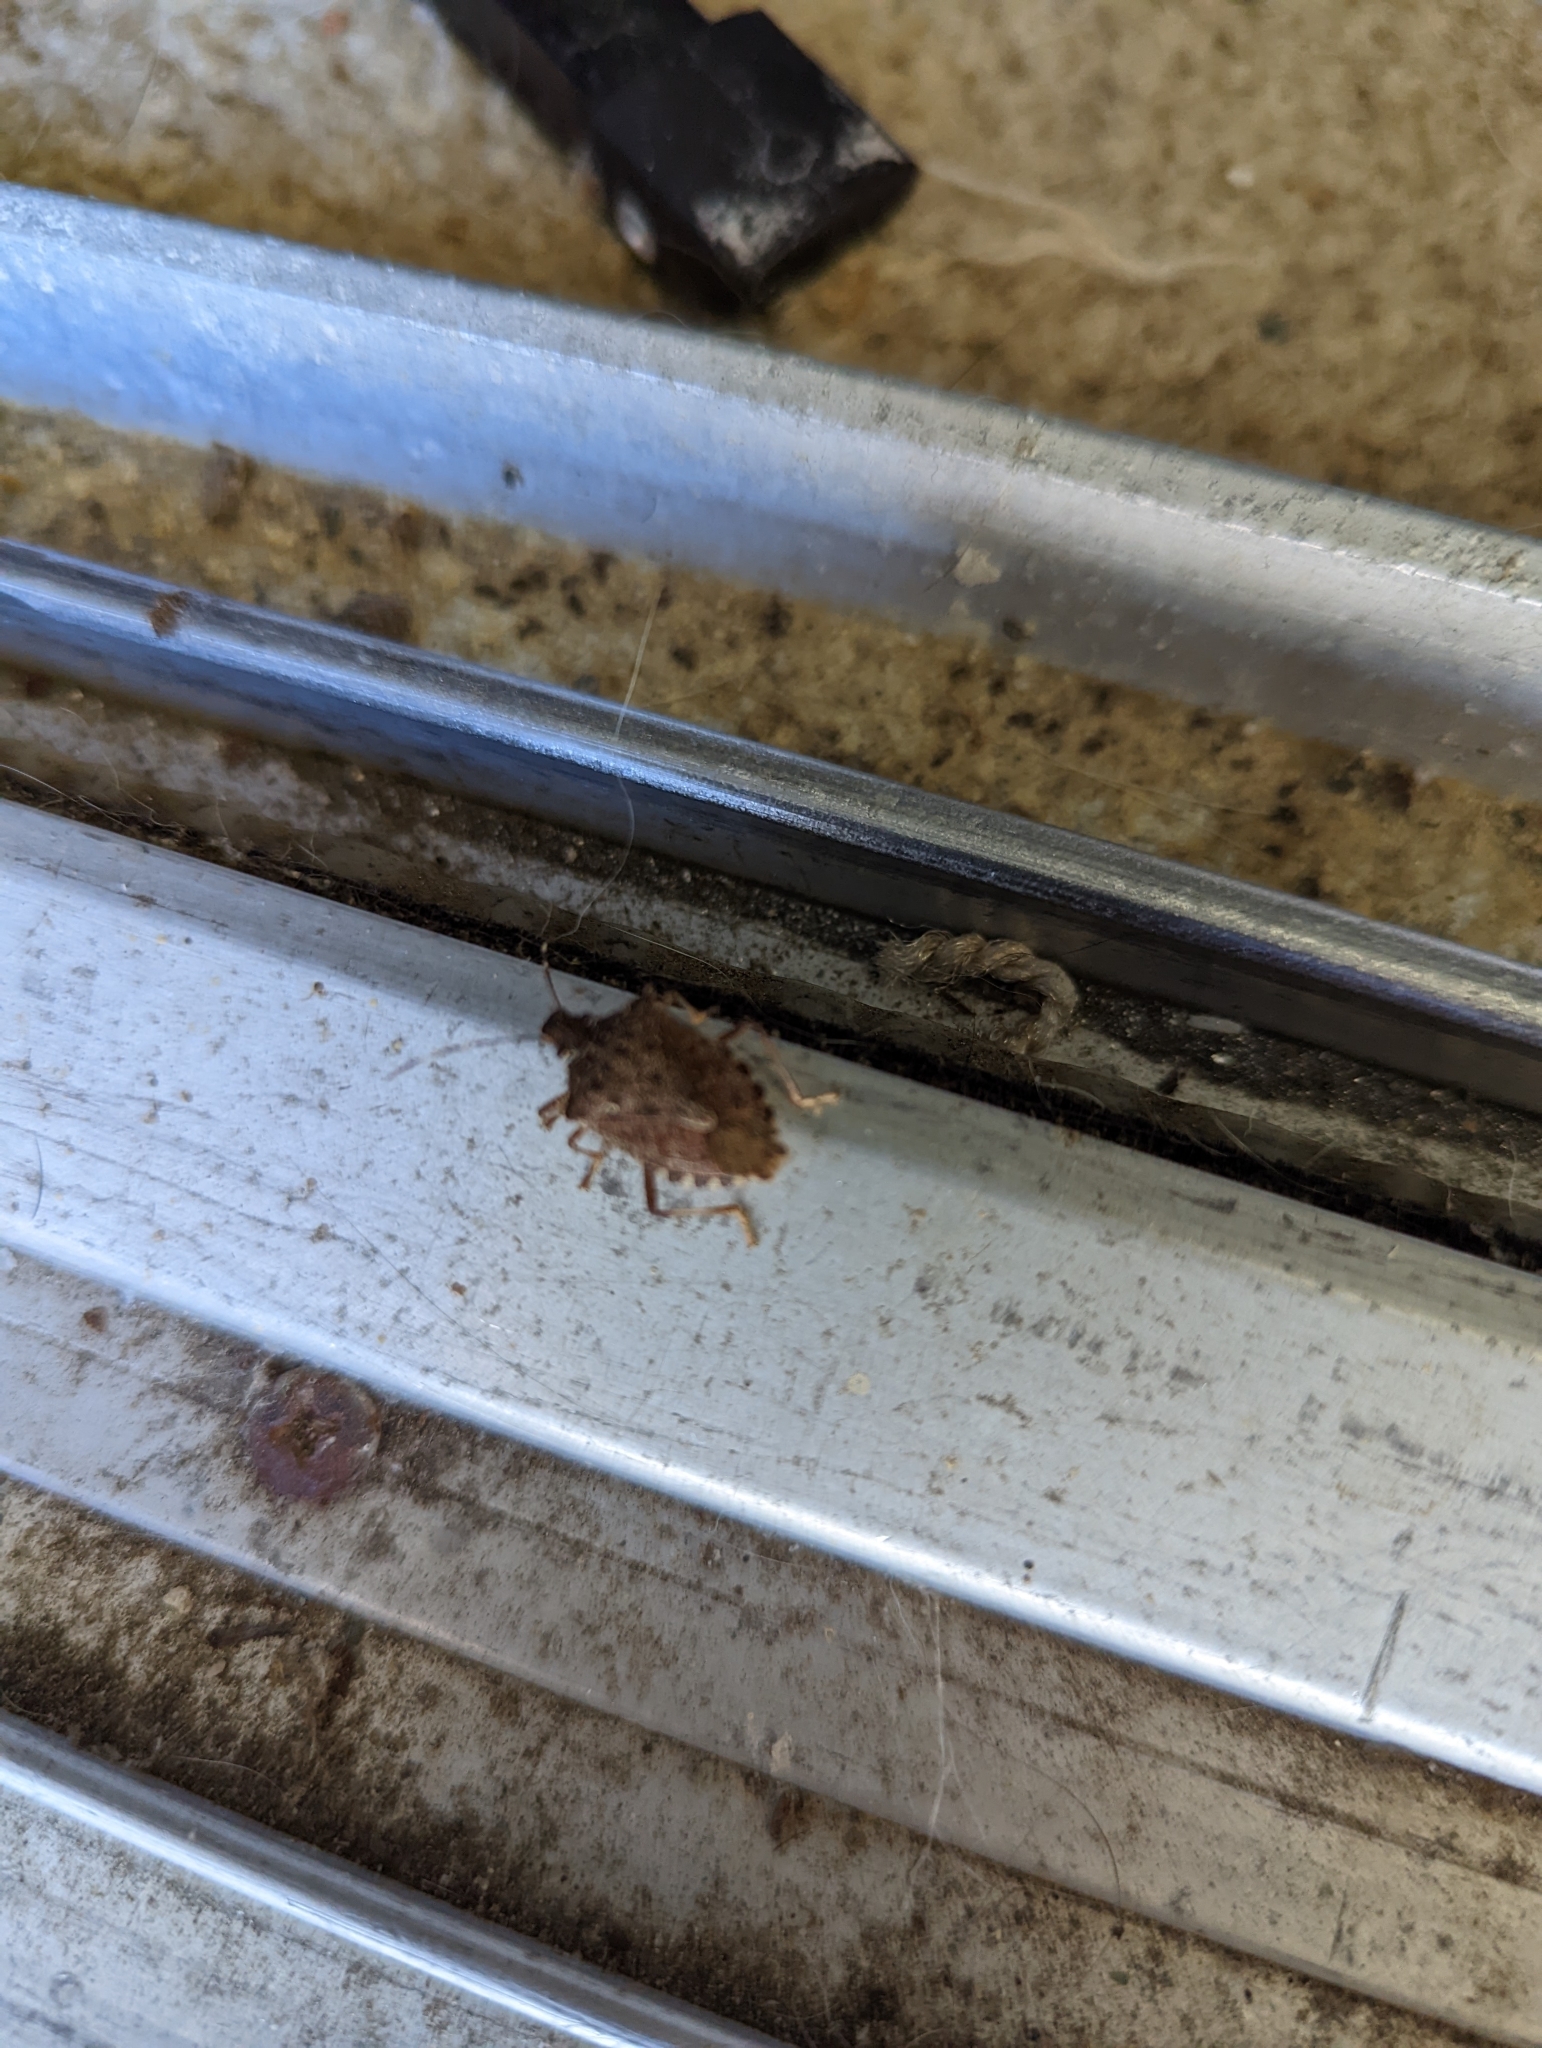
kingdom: Animalia
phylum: Arthropoda
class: Insecta
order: Hemiptera
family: Pentatomidae
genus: Halyomorpha
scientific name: Halyomorpha halys
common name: Brown marmorated stink bug
